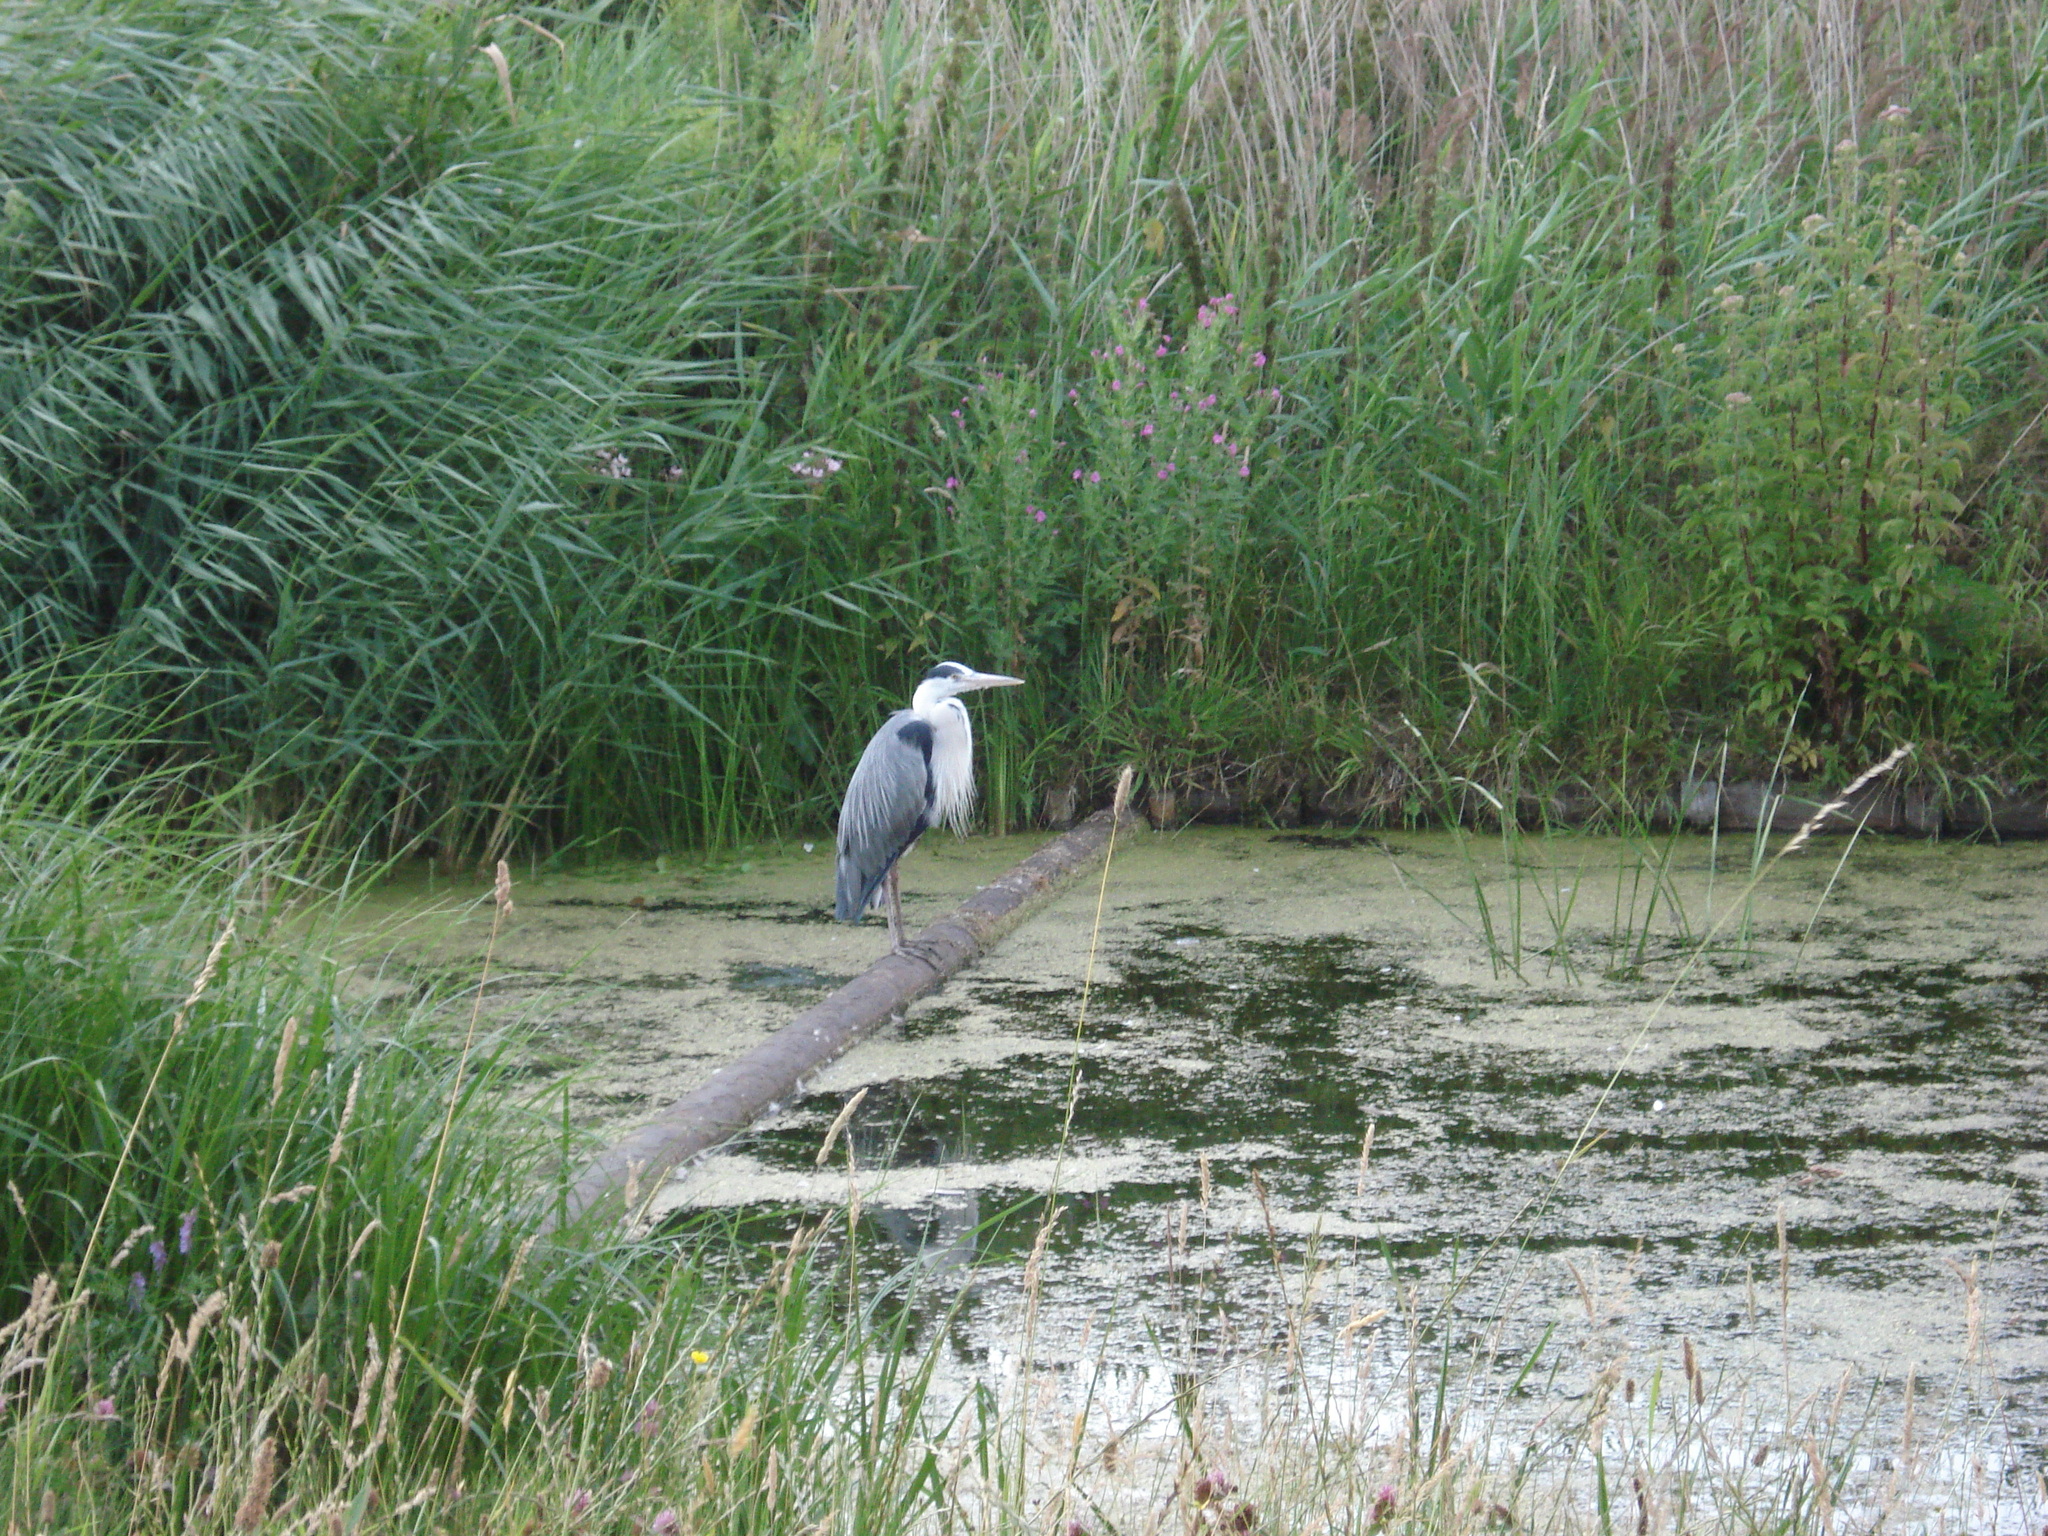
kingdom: Animalia
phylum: Chordata
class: Aves
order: Pelecaniformes
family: Ardeidae
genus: Ardea
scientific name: Ardea cinerea
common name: Grey heron
